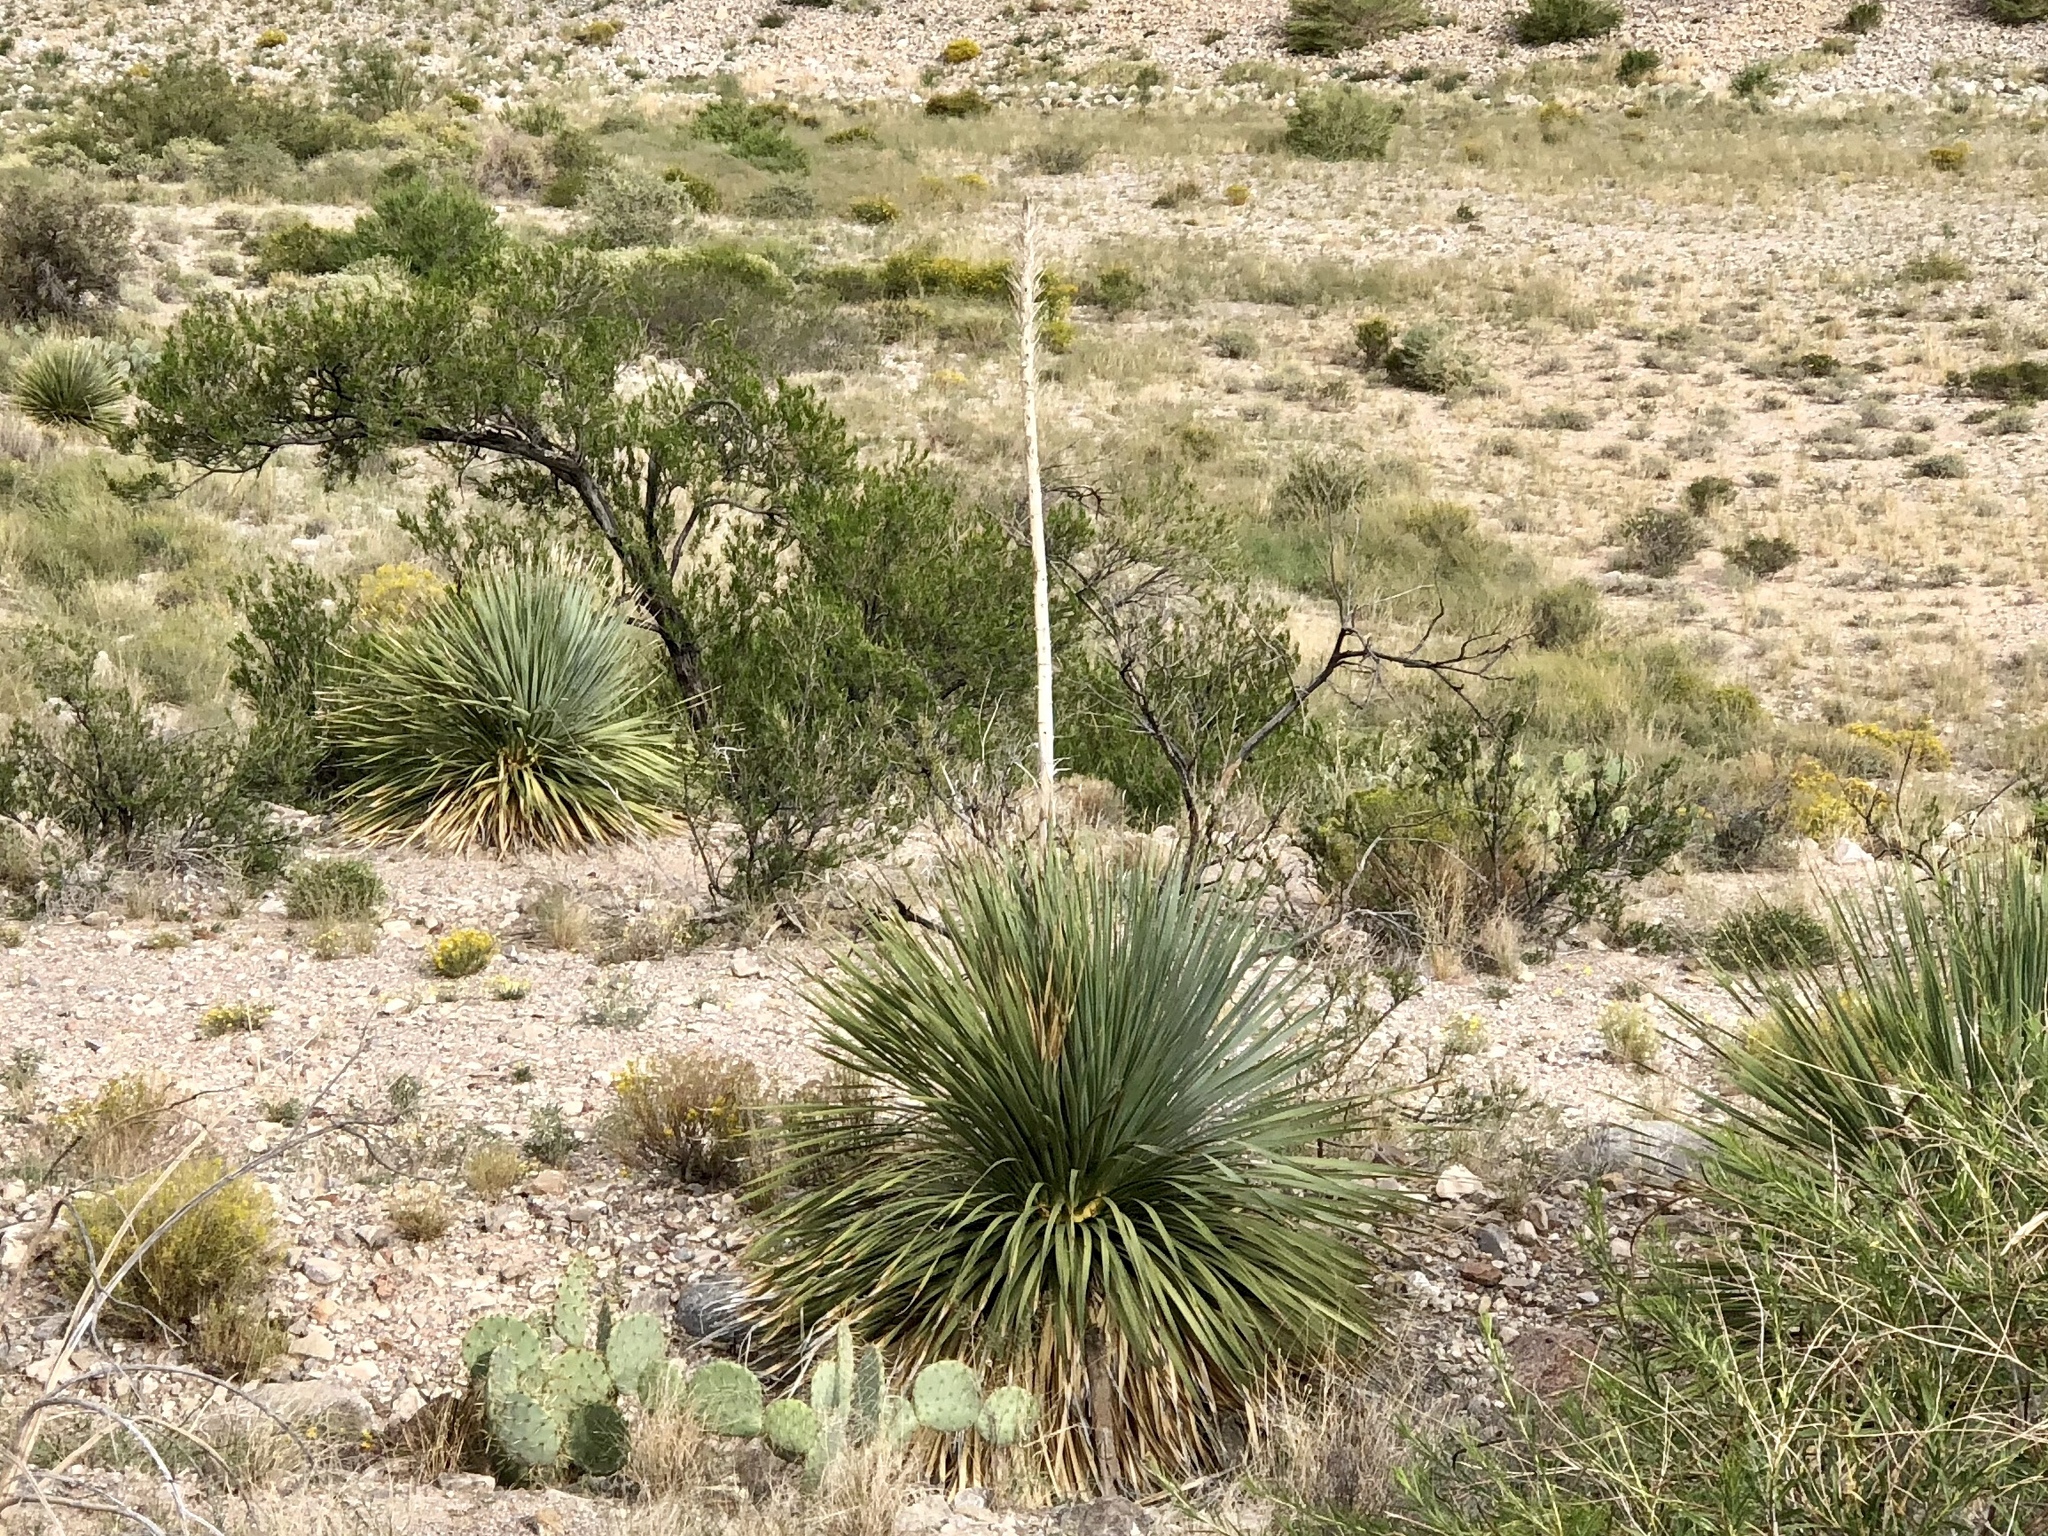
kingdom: Plantae
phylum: Tracheophyta
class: Liliopsida
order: Asparagales
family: Asparagaceae
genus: Dasylirion
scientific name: Dasylirion wheeleri
